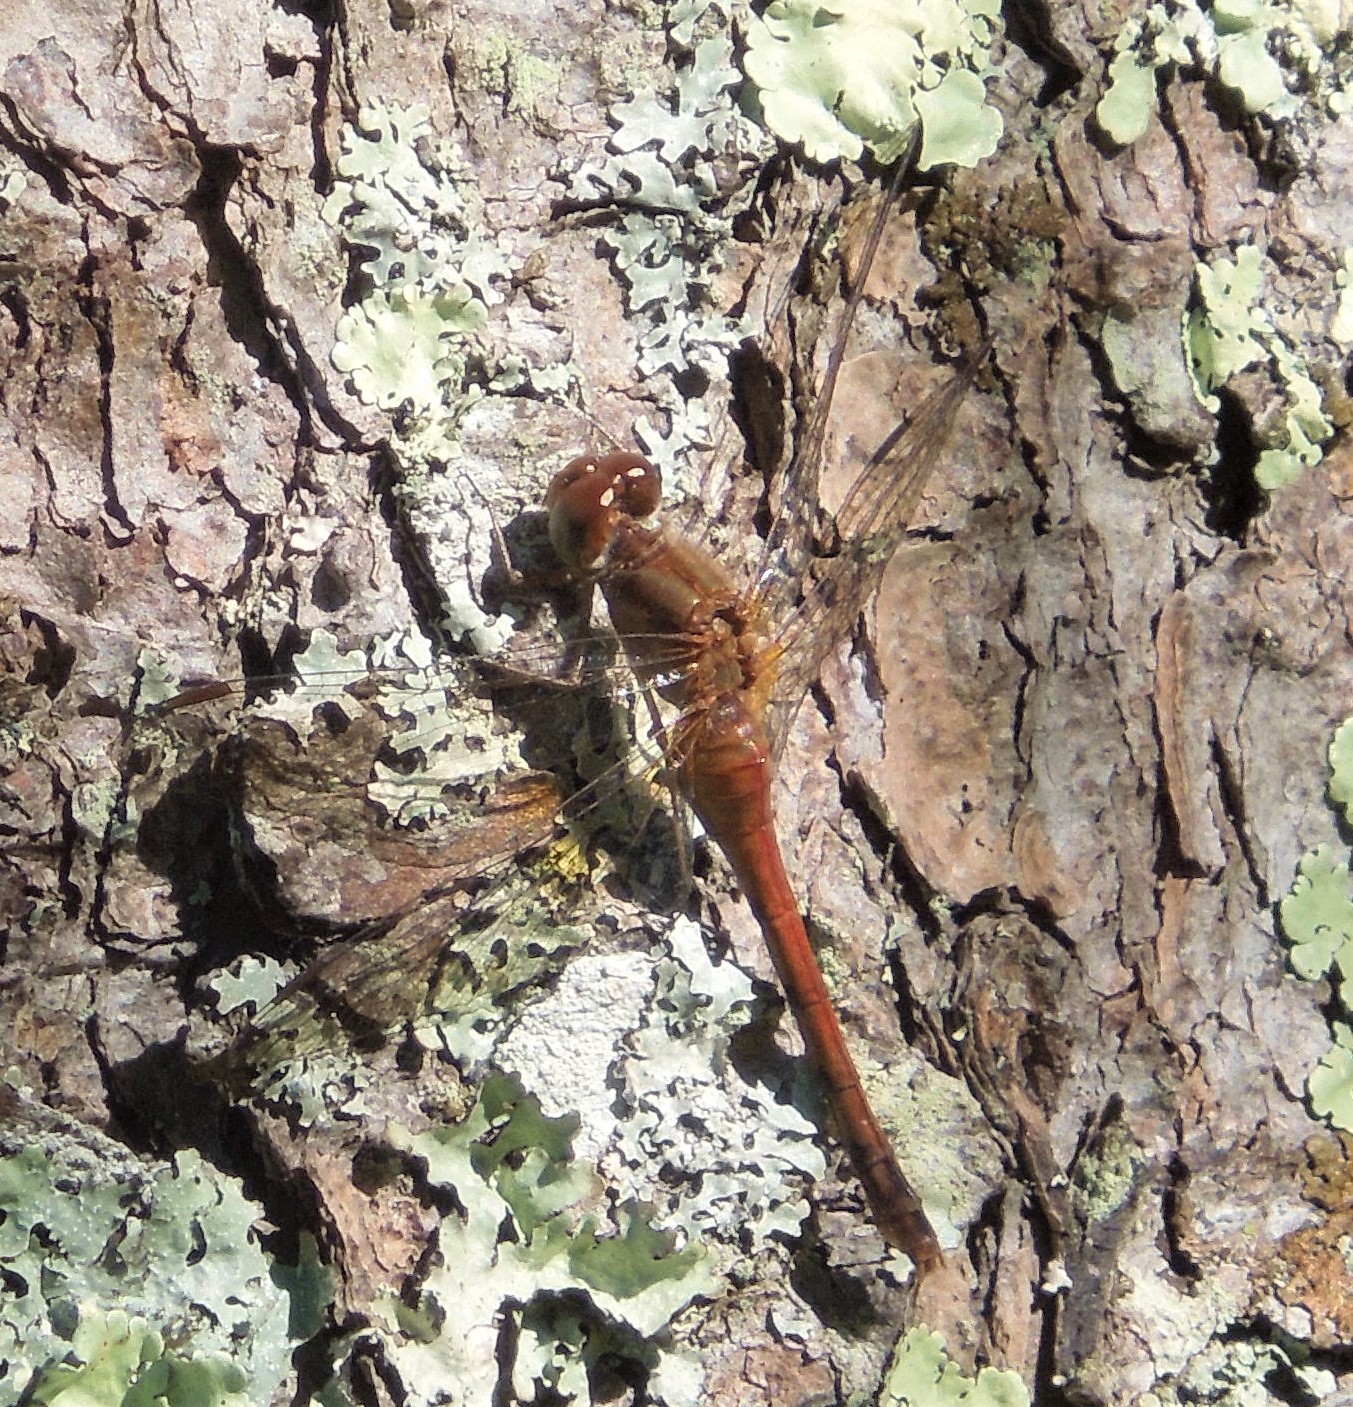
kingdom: Animalia
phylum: Arthropoda
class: Insecta
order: Odonata
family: Libellulidae
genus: Sympetrum
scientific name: Sympetrum vicinum
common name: Autumn meadowhawk
